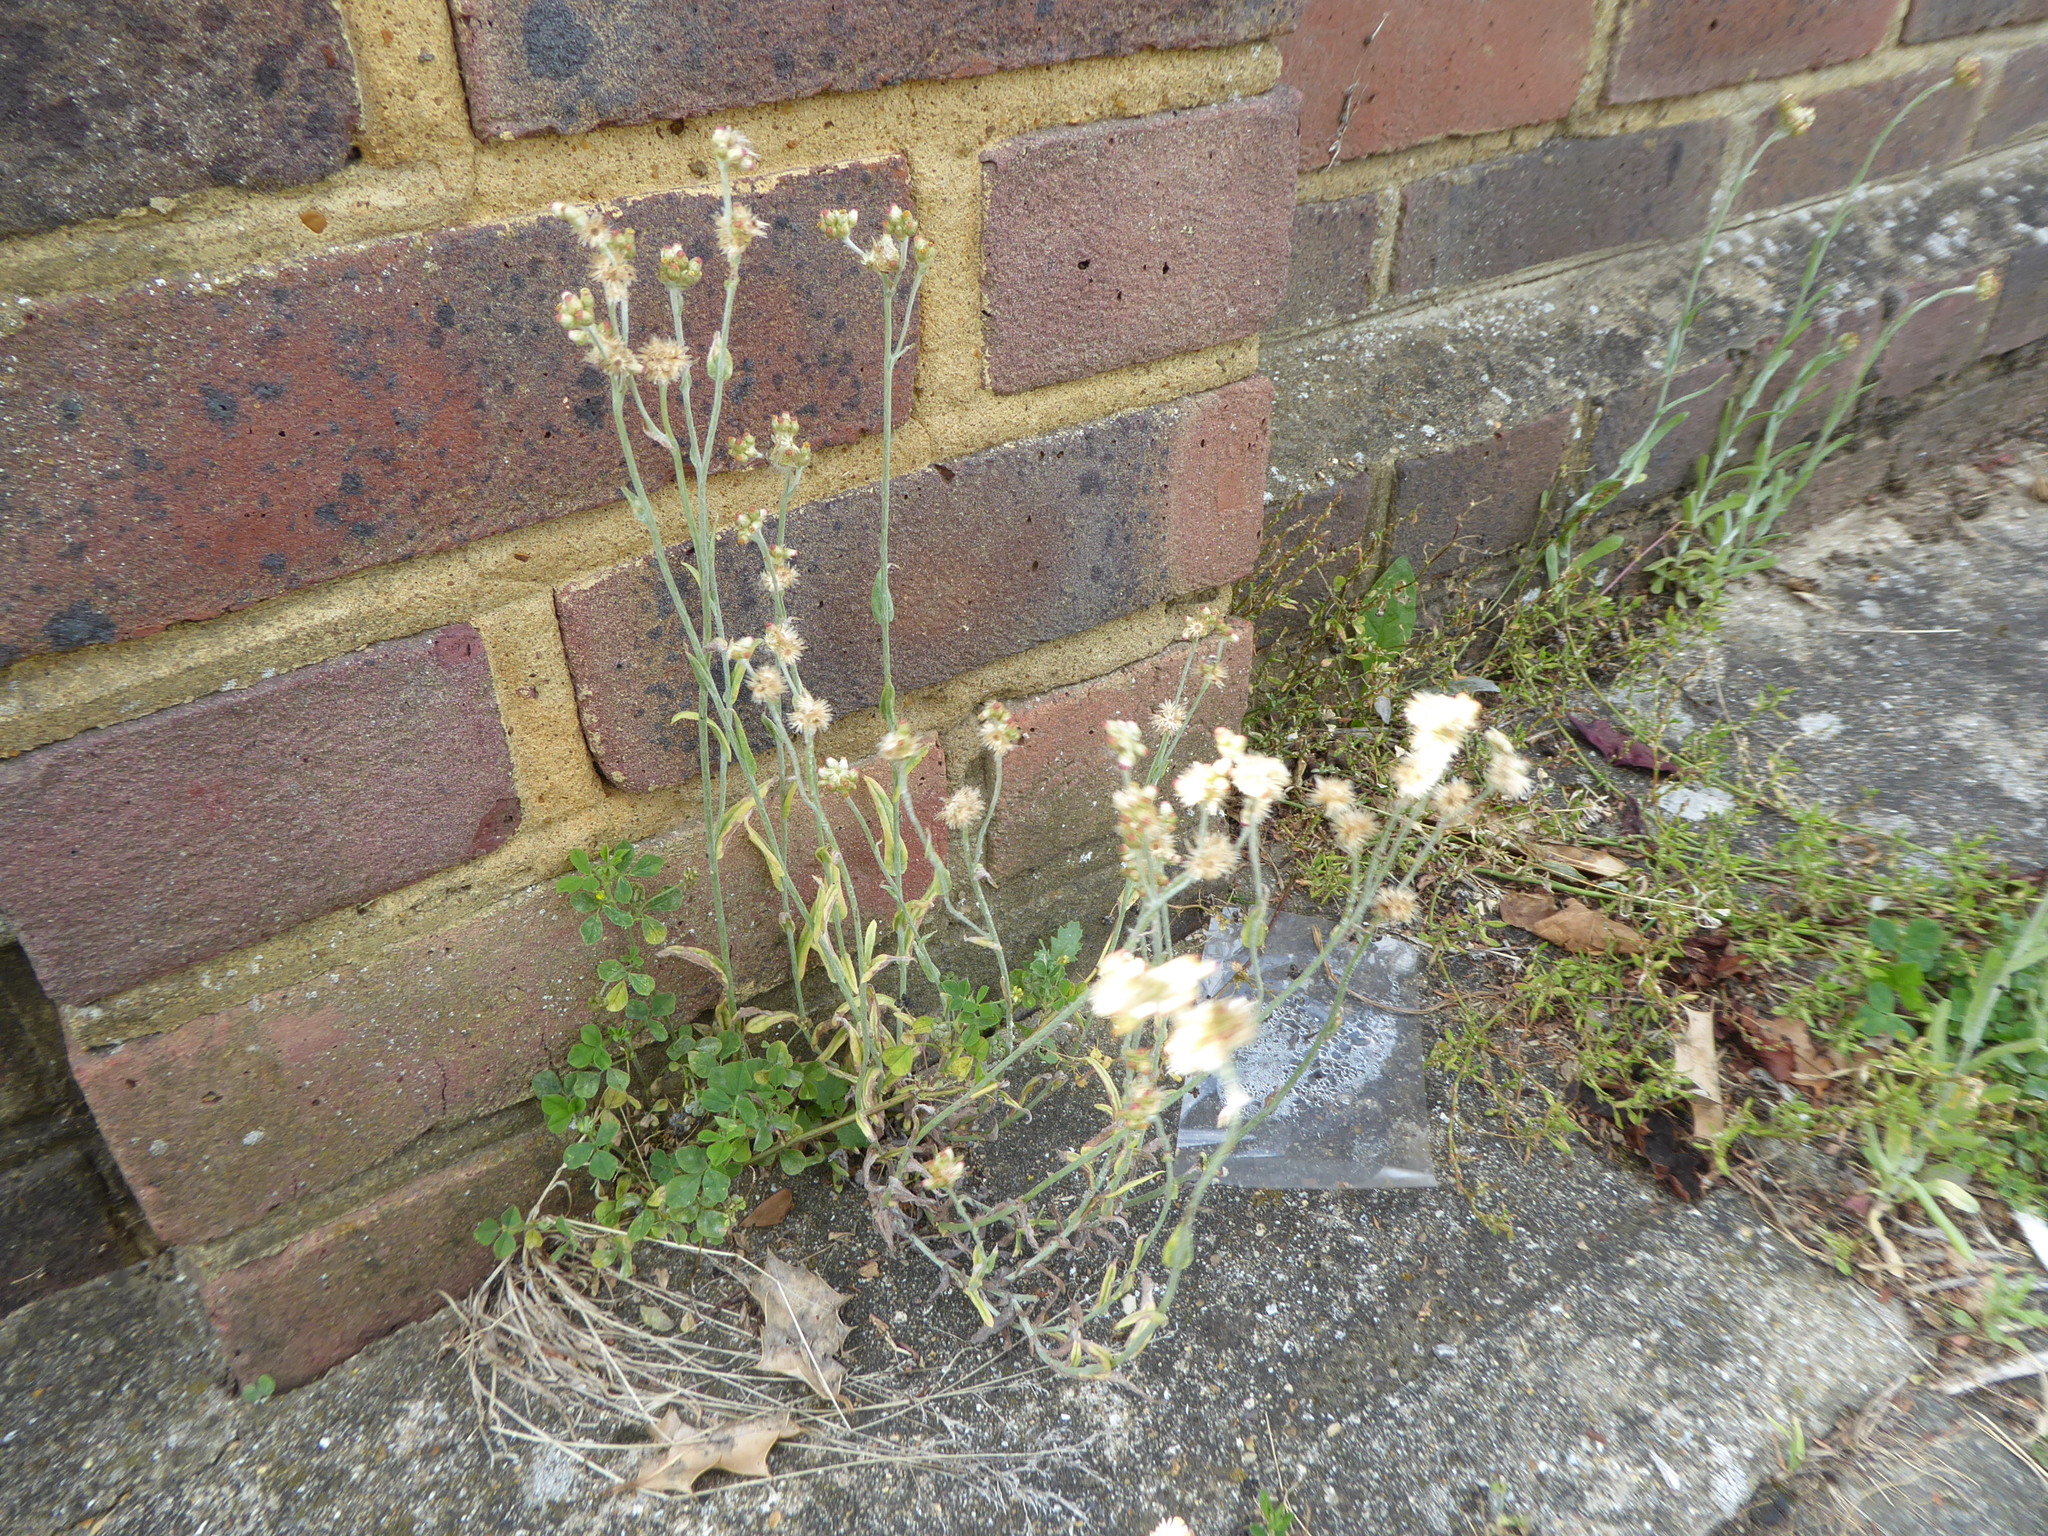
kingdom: Plantae
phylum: Tracheophyta
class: Magnoliopsida
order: Asterales
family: Asteraceae
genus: Helichrysum
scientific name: Helichrysum luteoalbum
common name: Daisy
